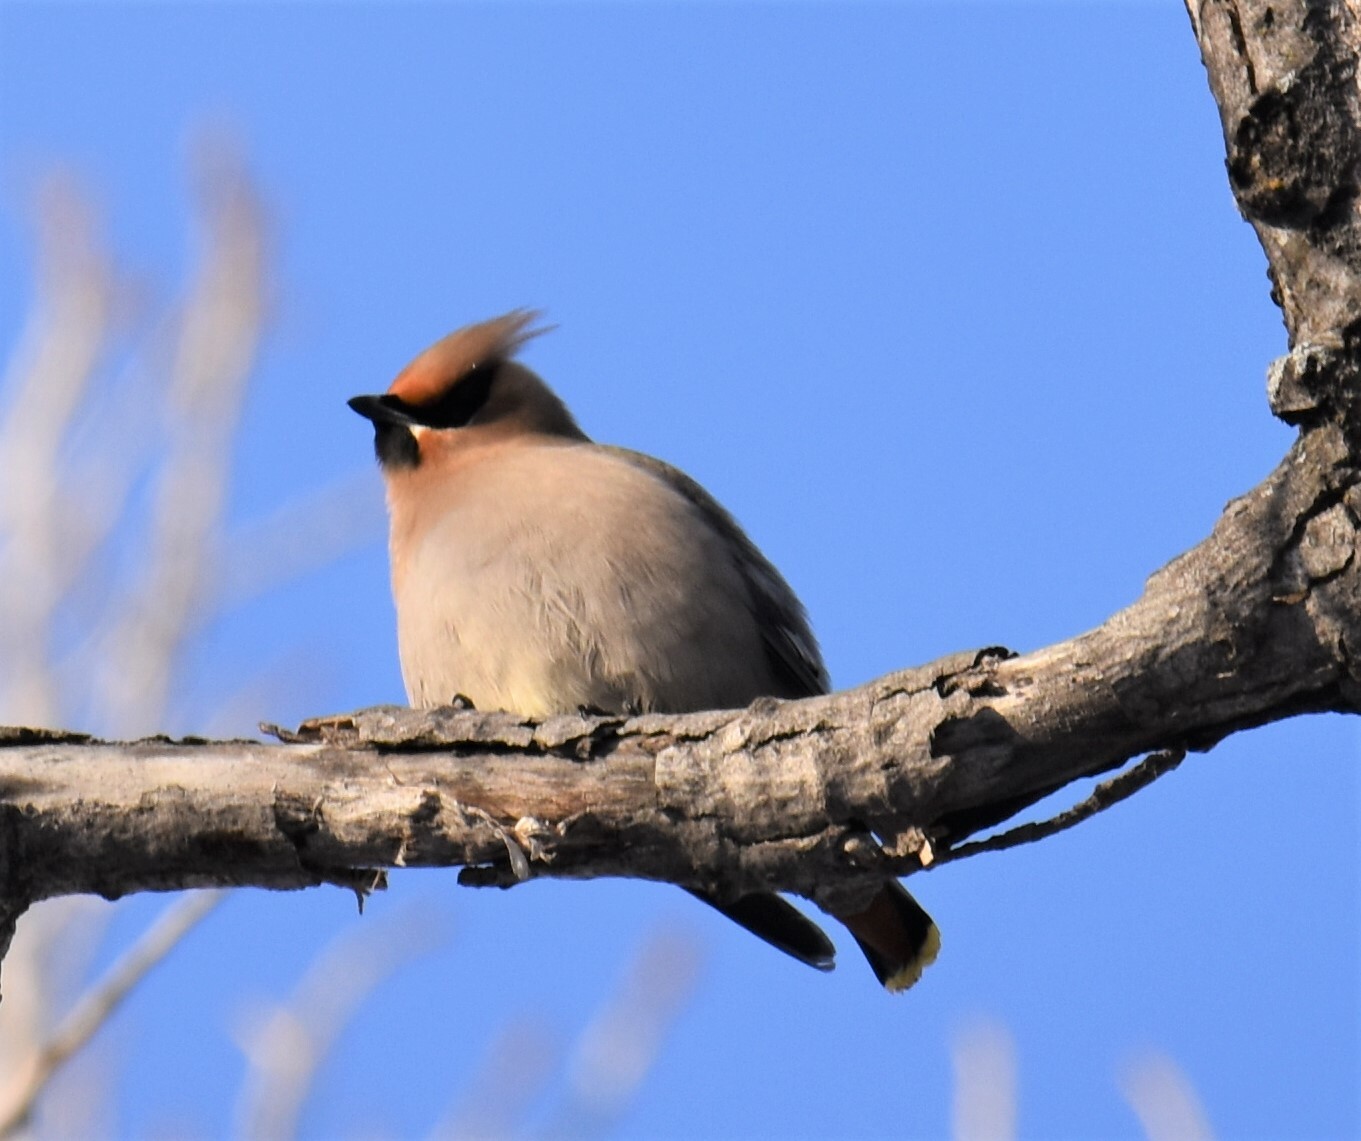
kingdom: Animalia
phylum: Chordata
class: Aves
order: Passeriformes
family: Bombycillidae
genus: Bombycilla
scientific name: Bombycilla garrulus
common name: Bohemian waxwing
